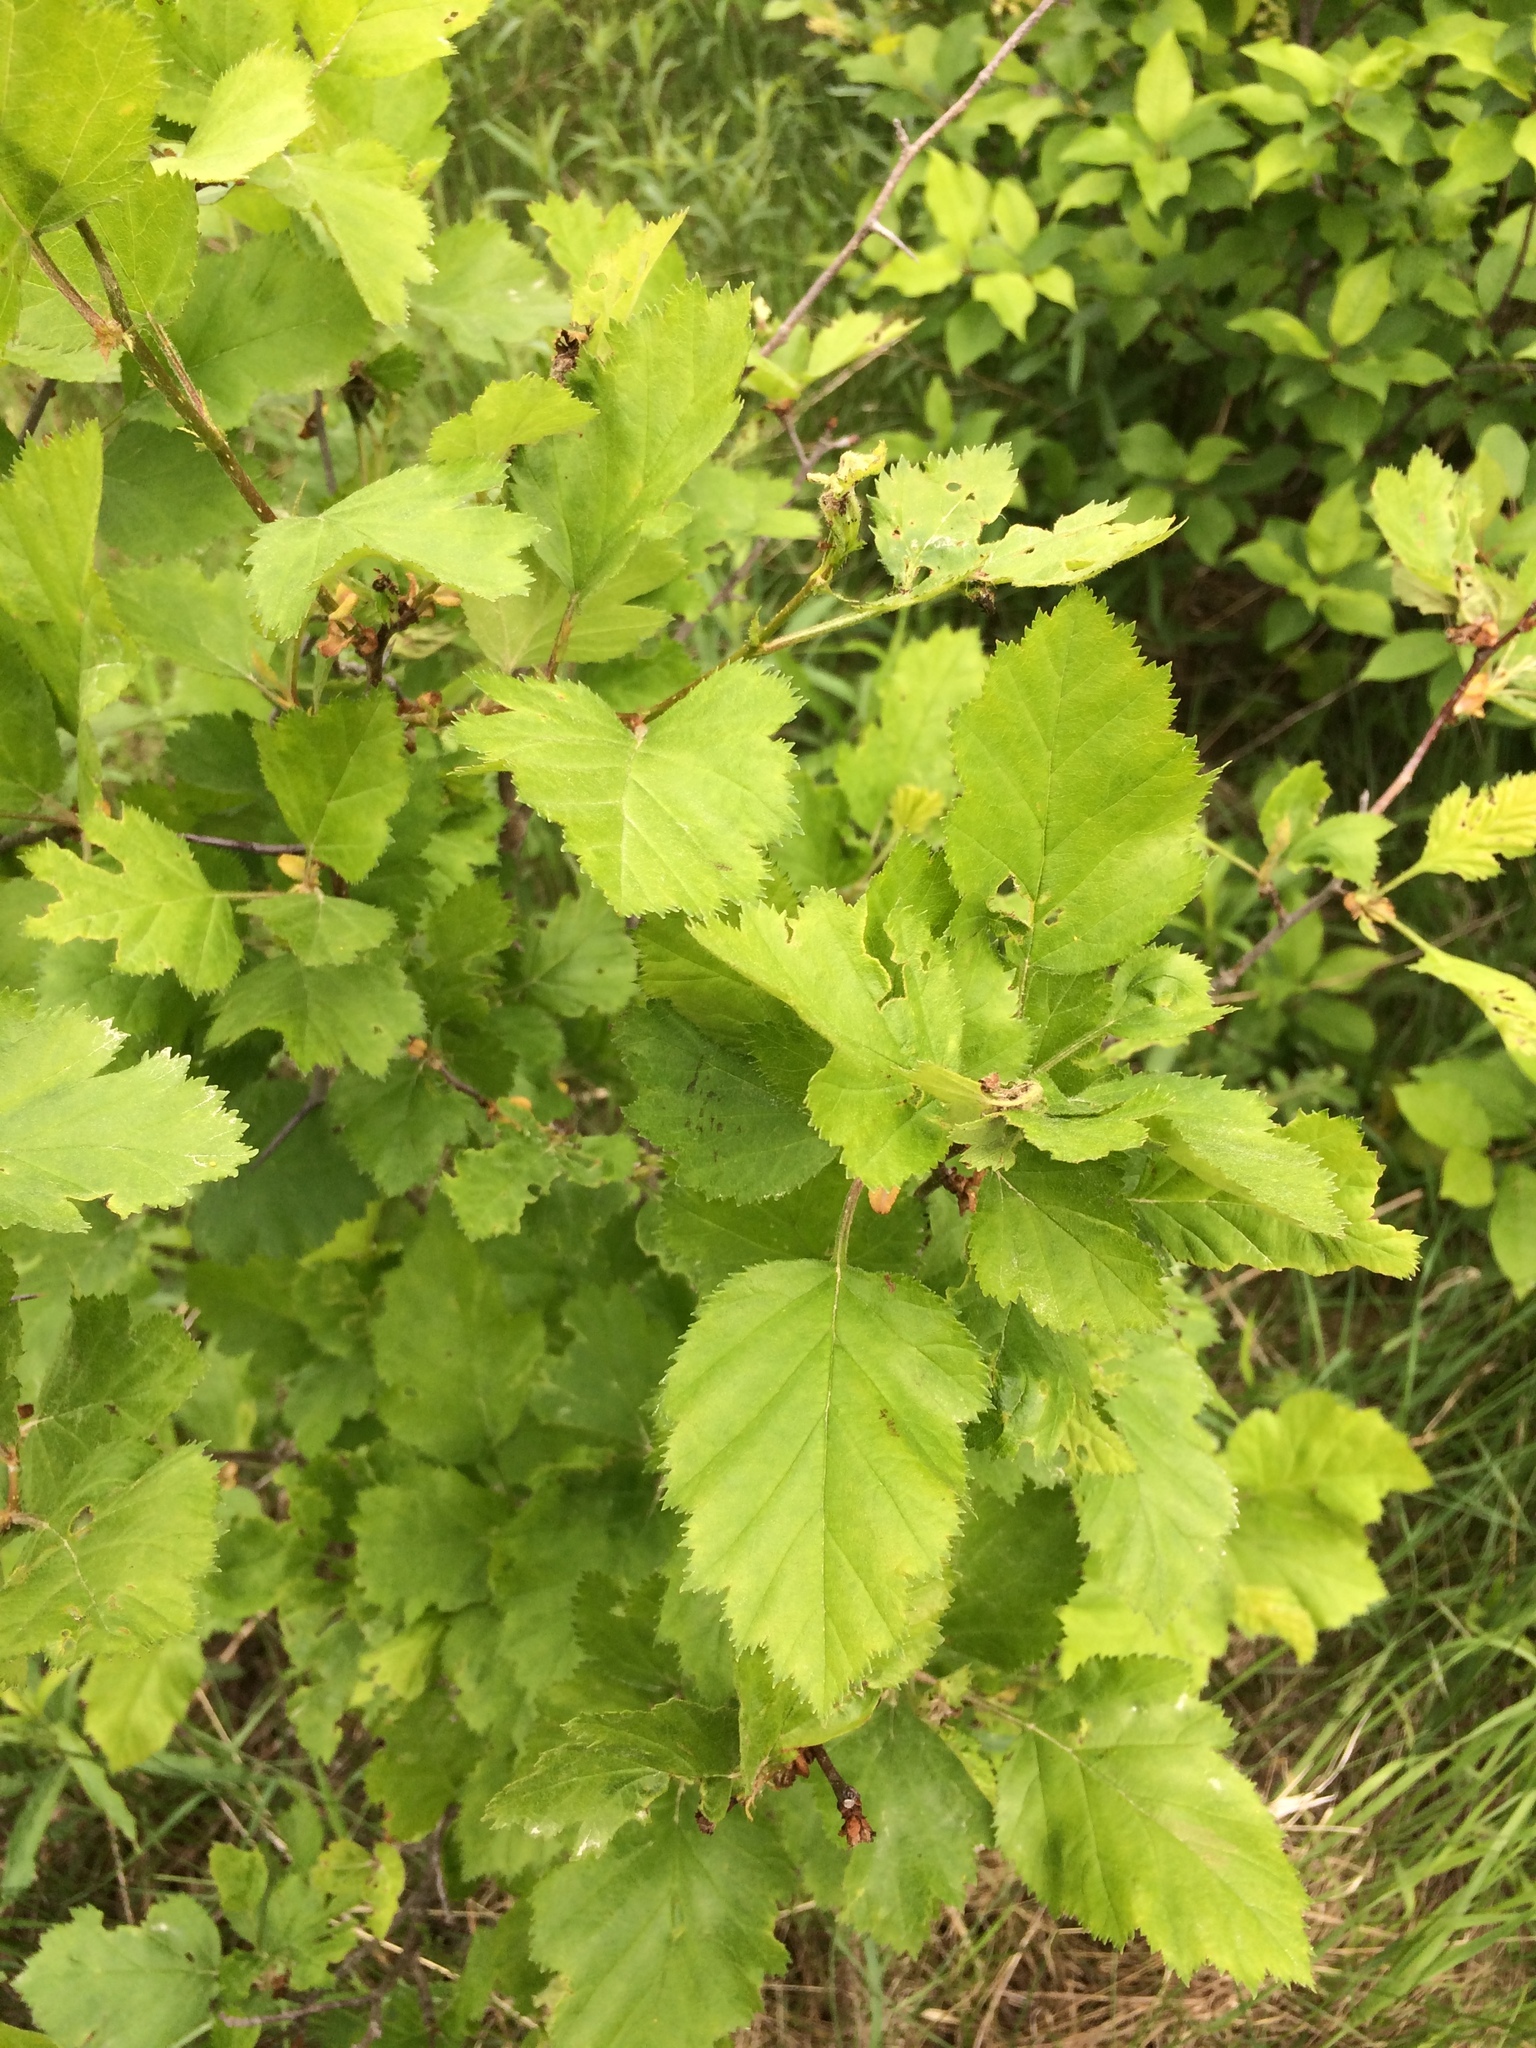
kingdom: Plantae
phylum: Tracheophyta
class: Magnoliopsida
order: Rosales
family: Rosaceae
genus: Crataegus
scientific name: Crataegus submollis
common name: Hairy cockspurthorn
